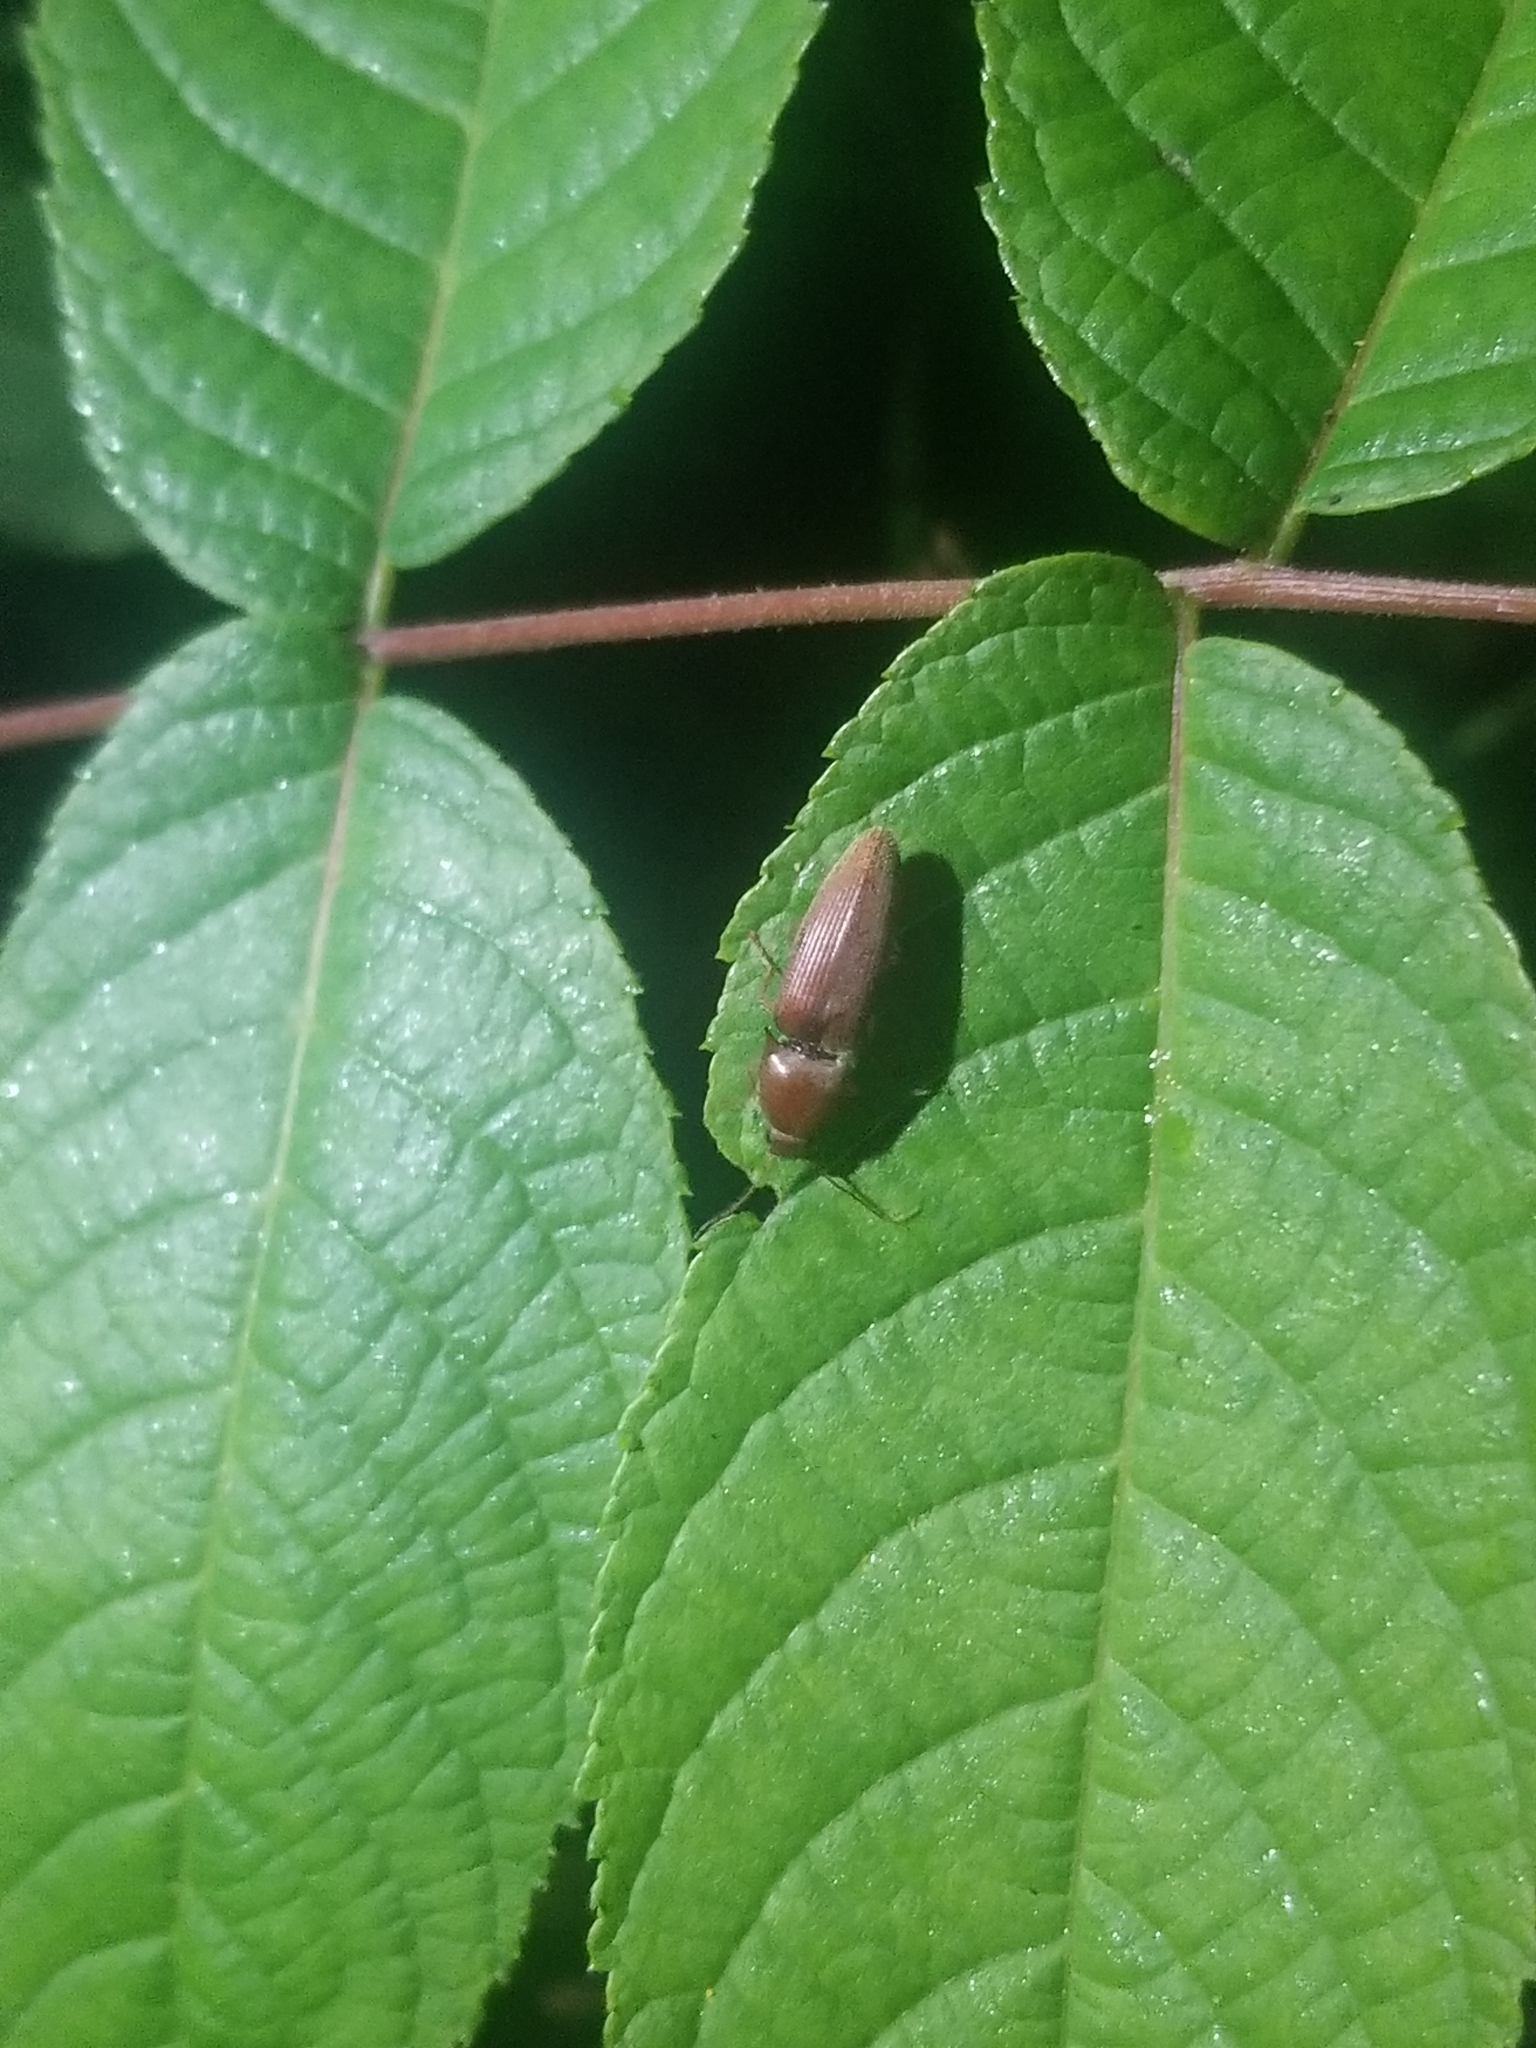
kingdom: Animalia
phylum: Arthropoda
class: Insecta
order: Coleoptera
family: Elateridae
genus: Monocrepidius
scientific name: Monocrepidius lividus
